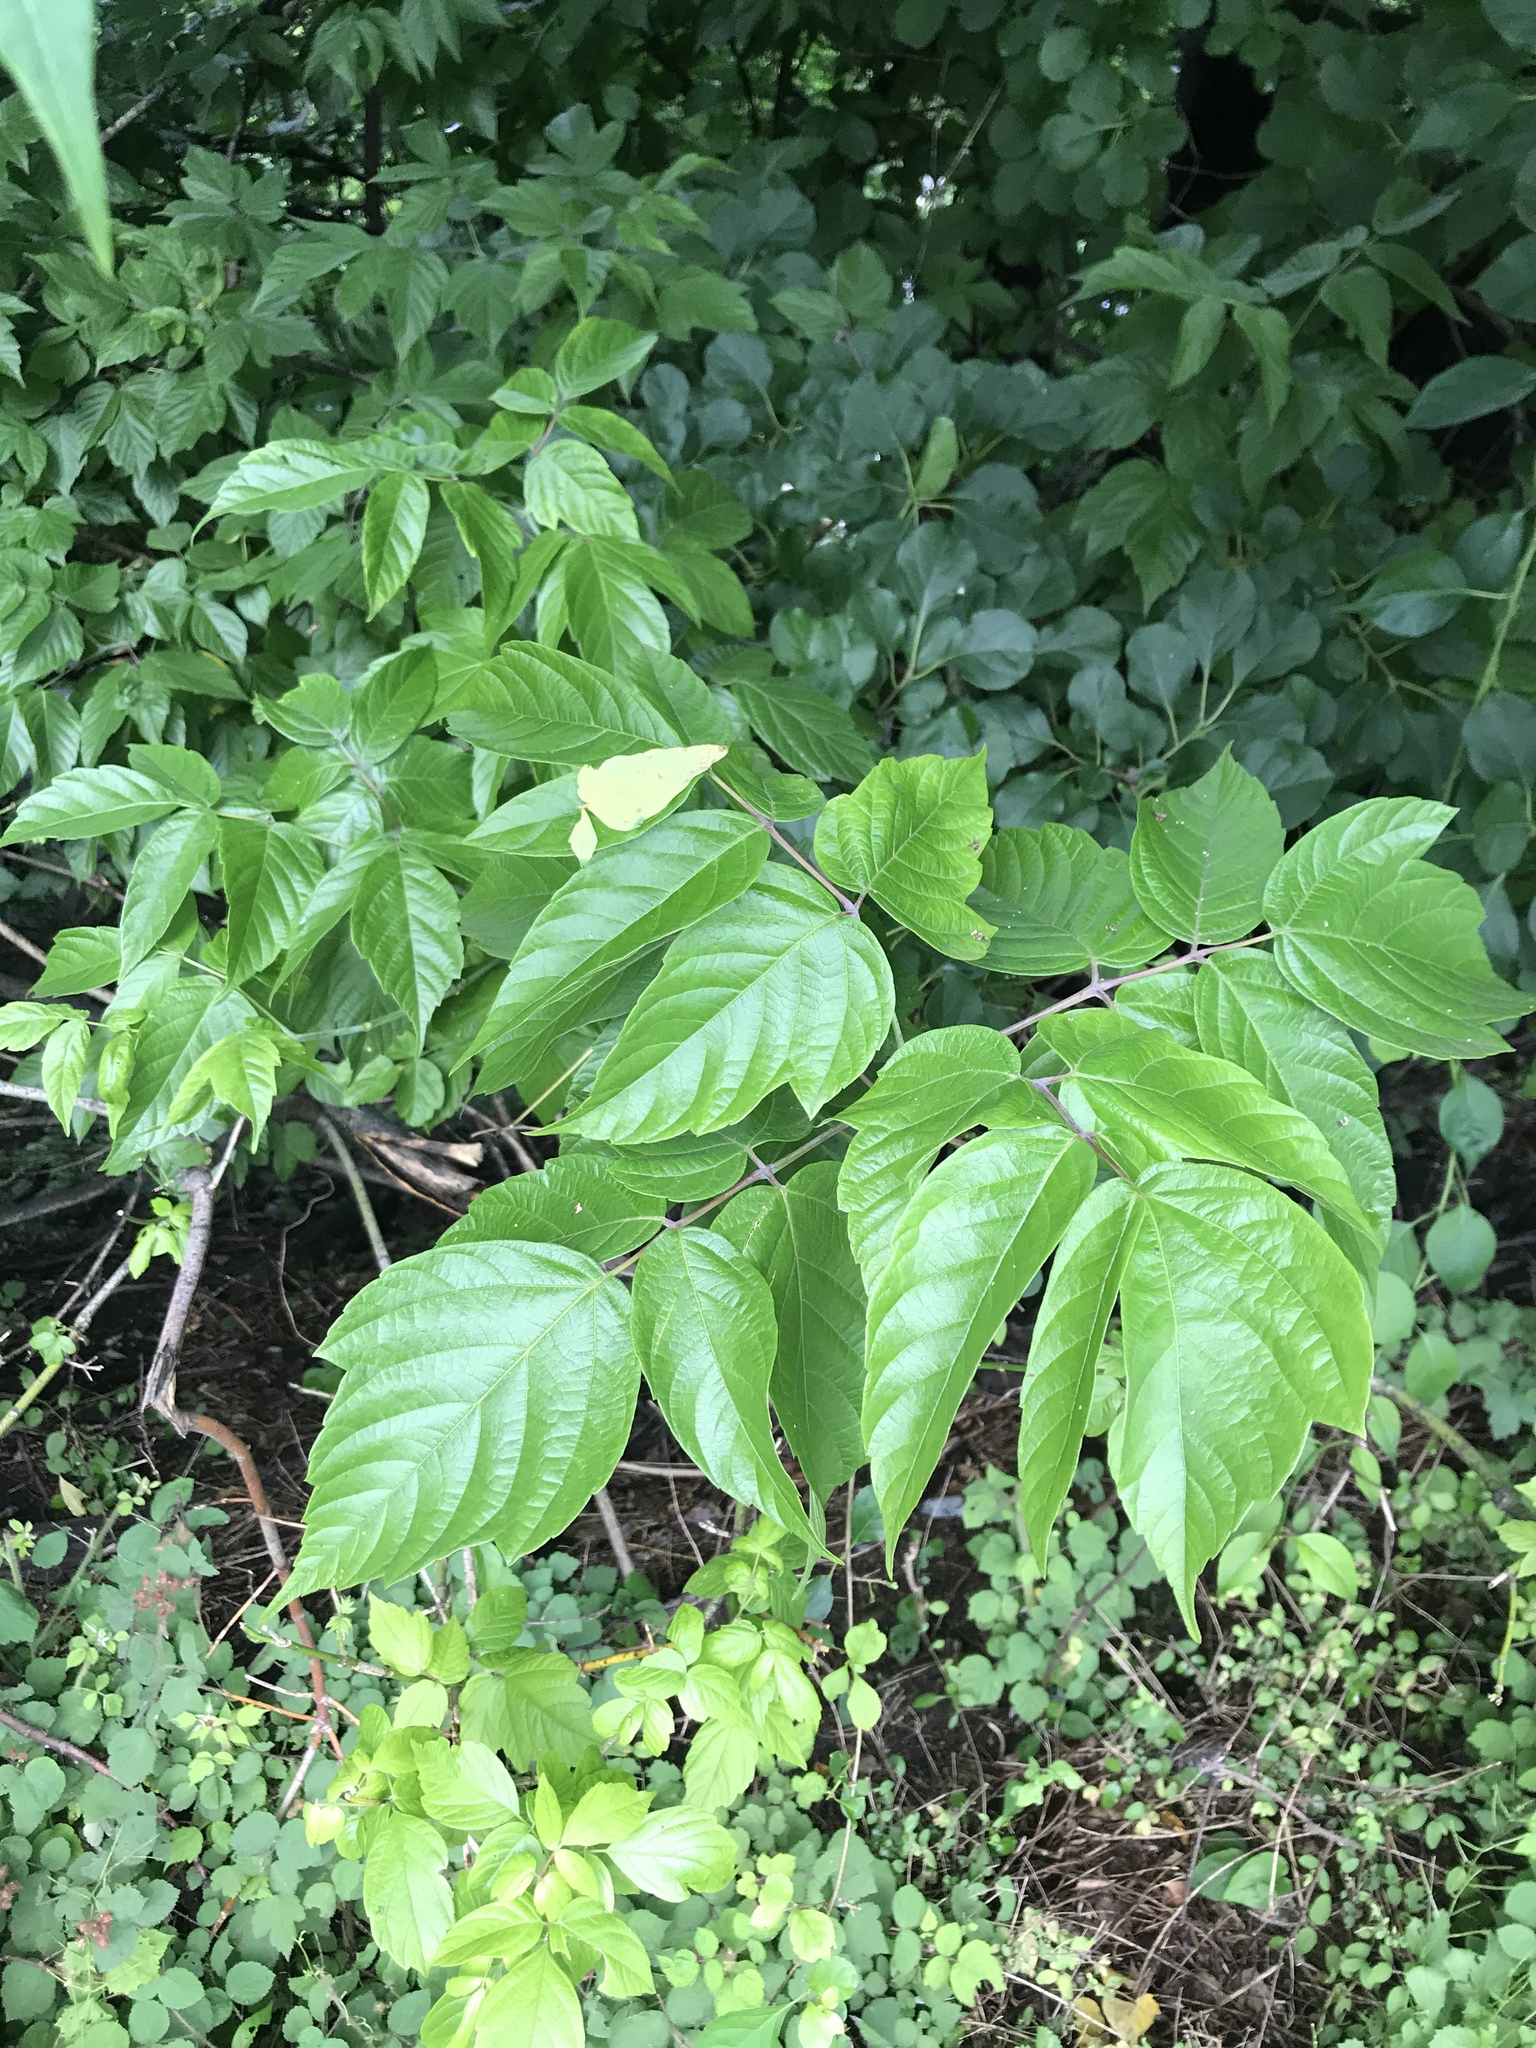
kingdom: Plantae
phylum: Tracheophyta
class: Magnoliopsida
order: Sapindales
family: Sapindaceae
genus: Acer
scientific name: Acer negundo
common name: Ashleaf maple
